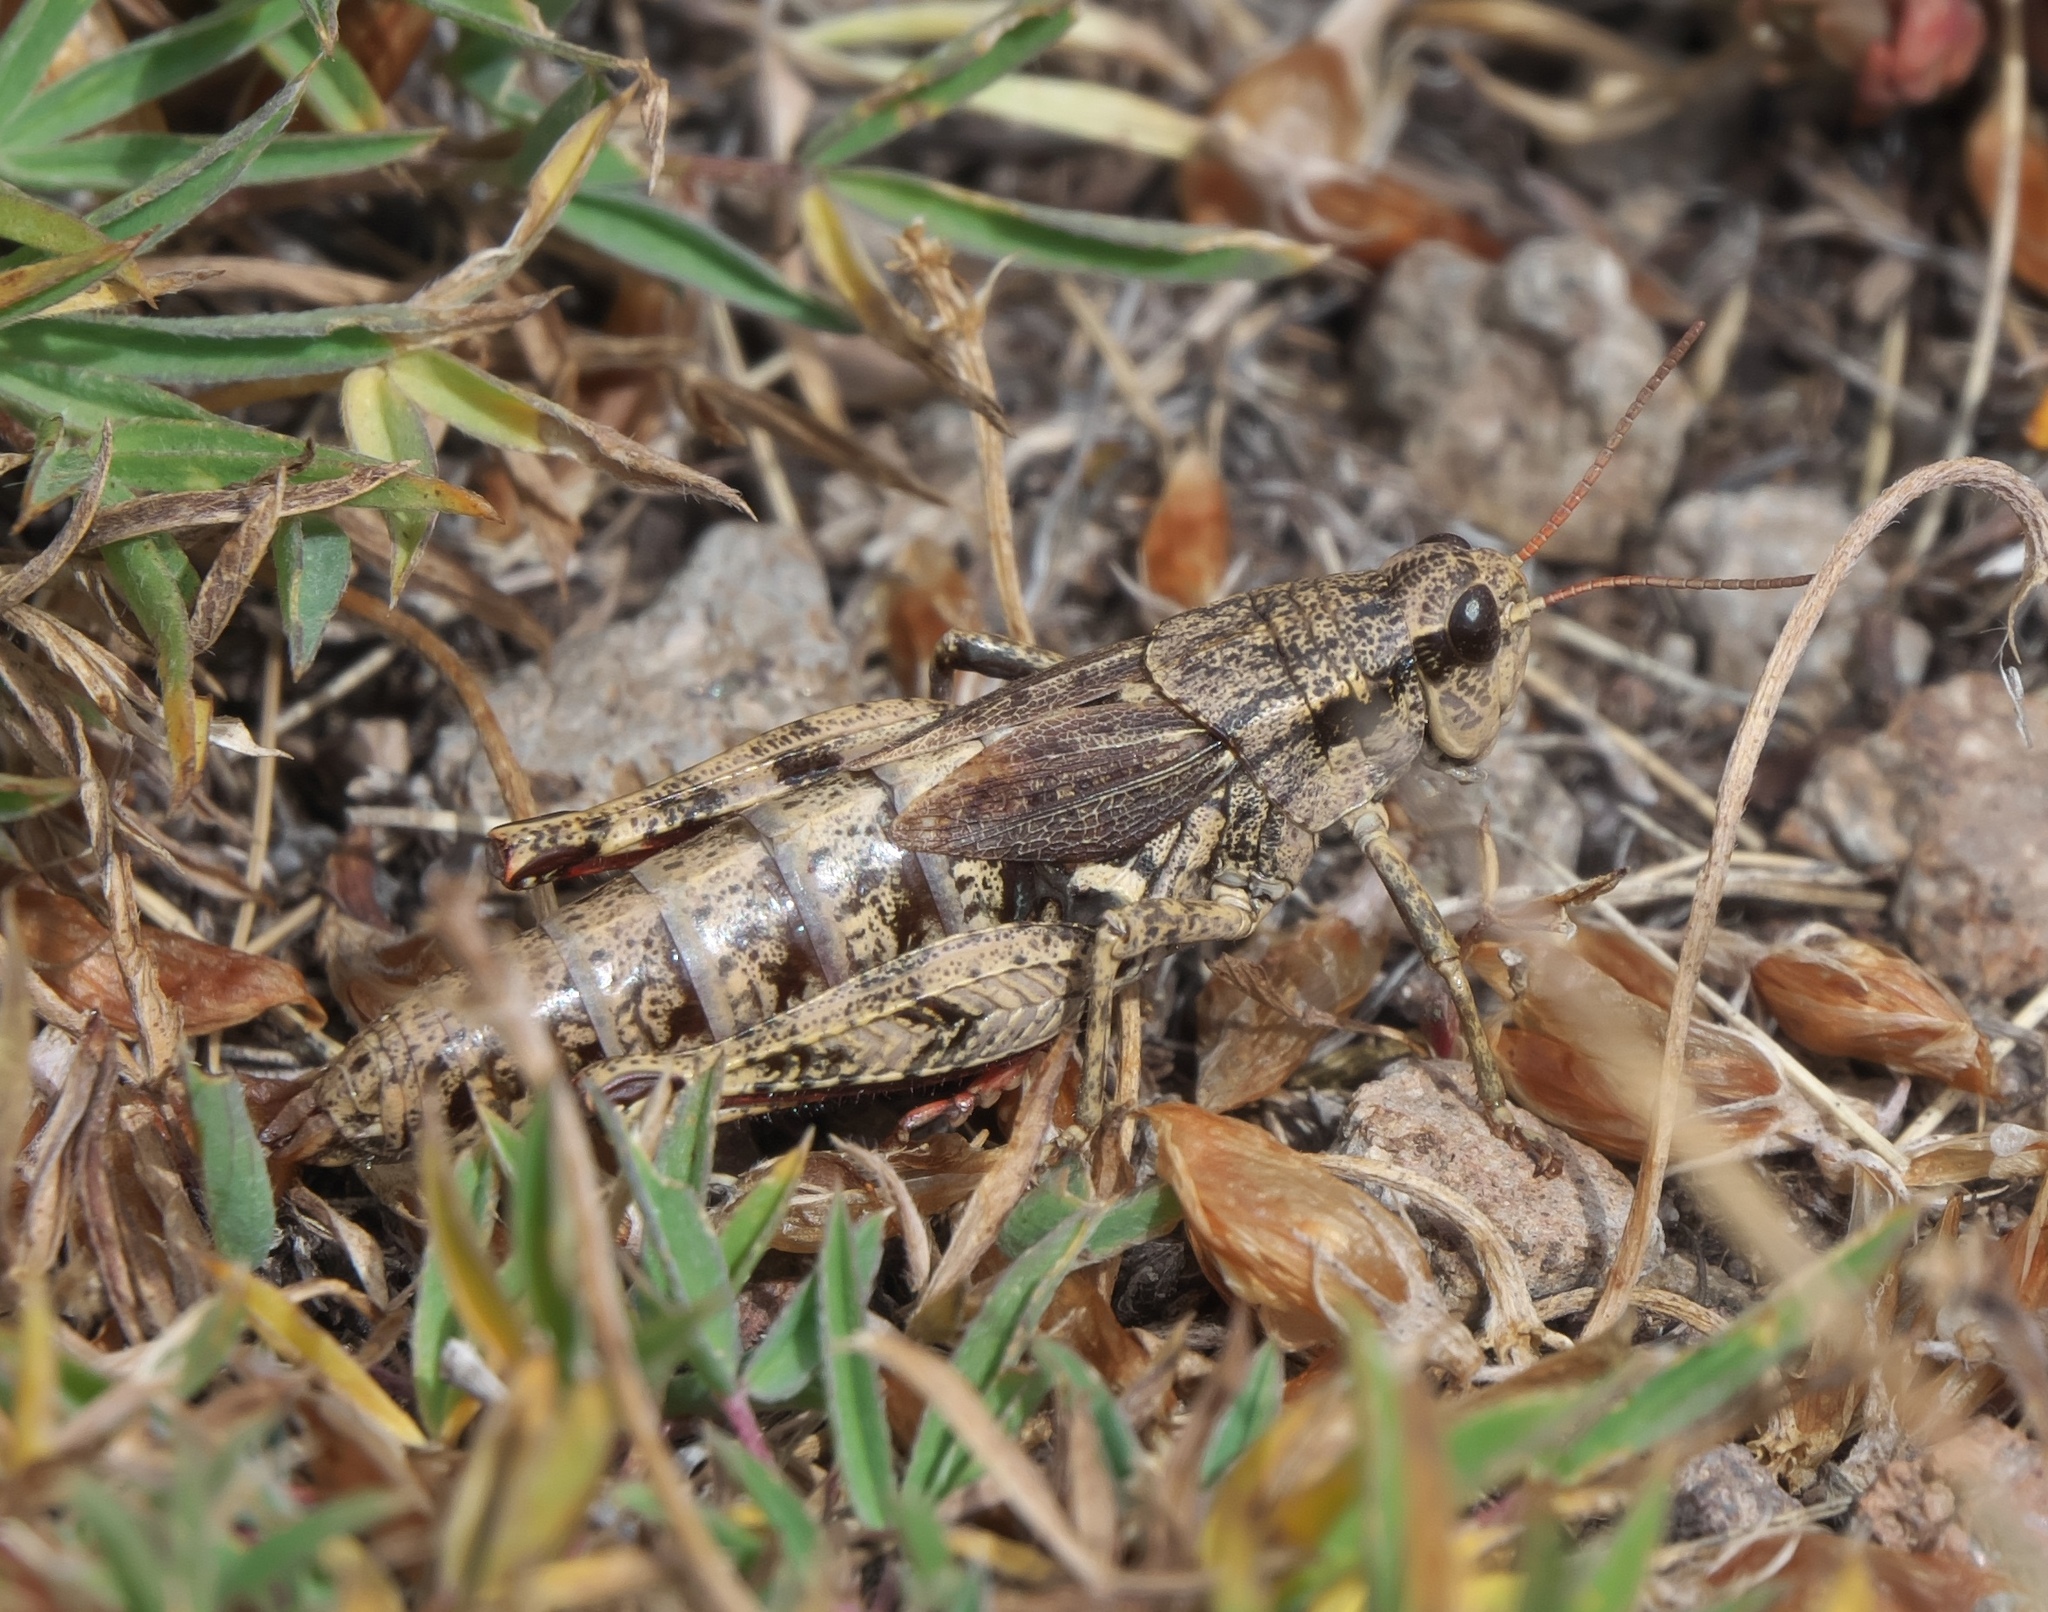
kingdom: Animalia
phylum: Arthropoda
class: Insecta
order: Orthoptera
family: Acrididae
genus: Melanoplus
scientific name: Melanoplus oregonensis
